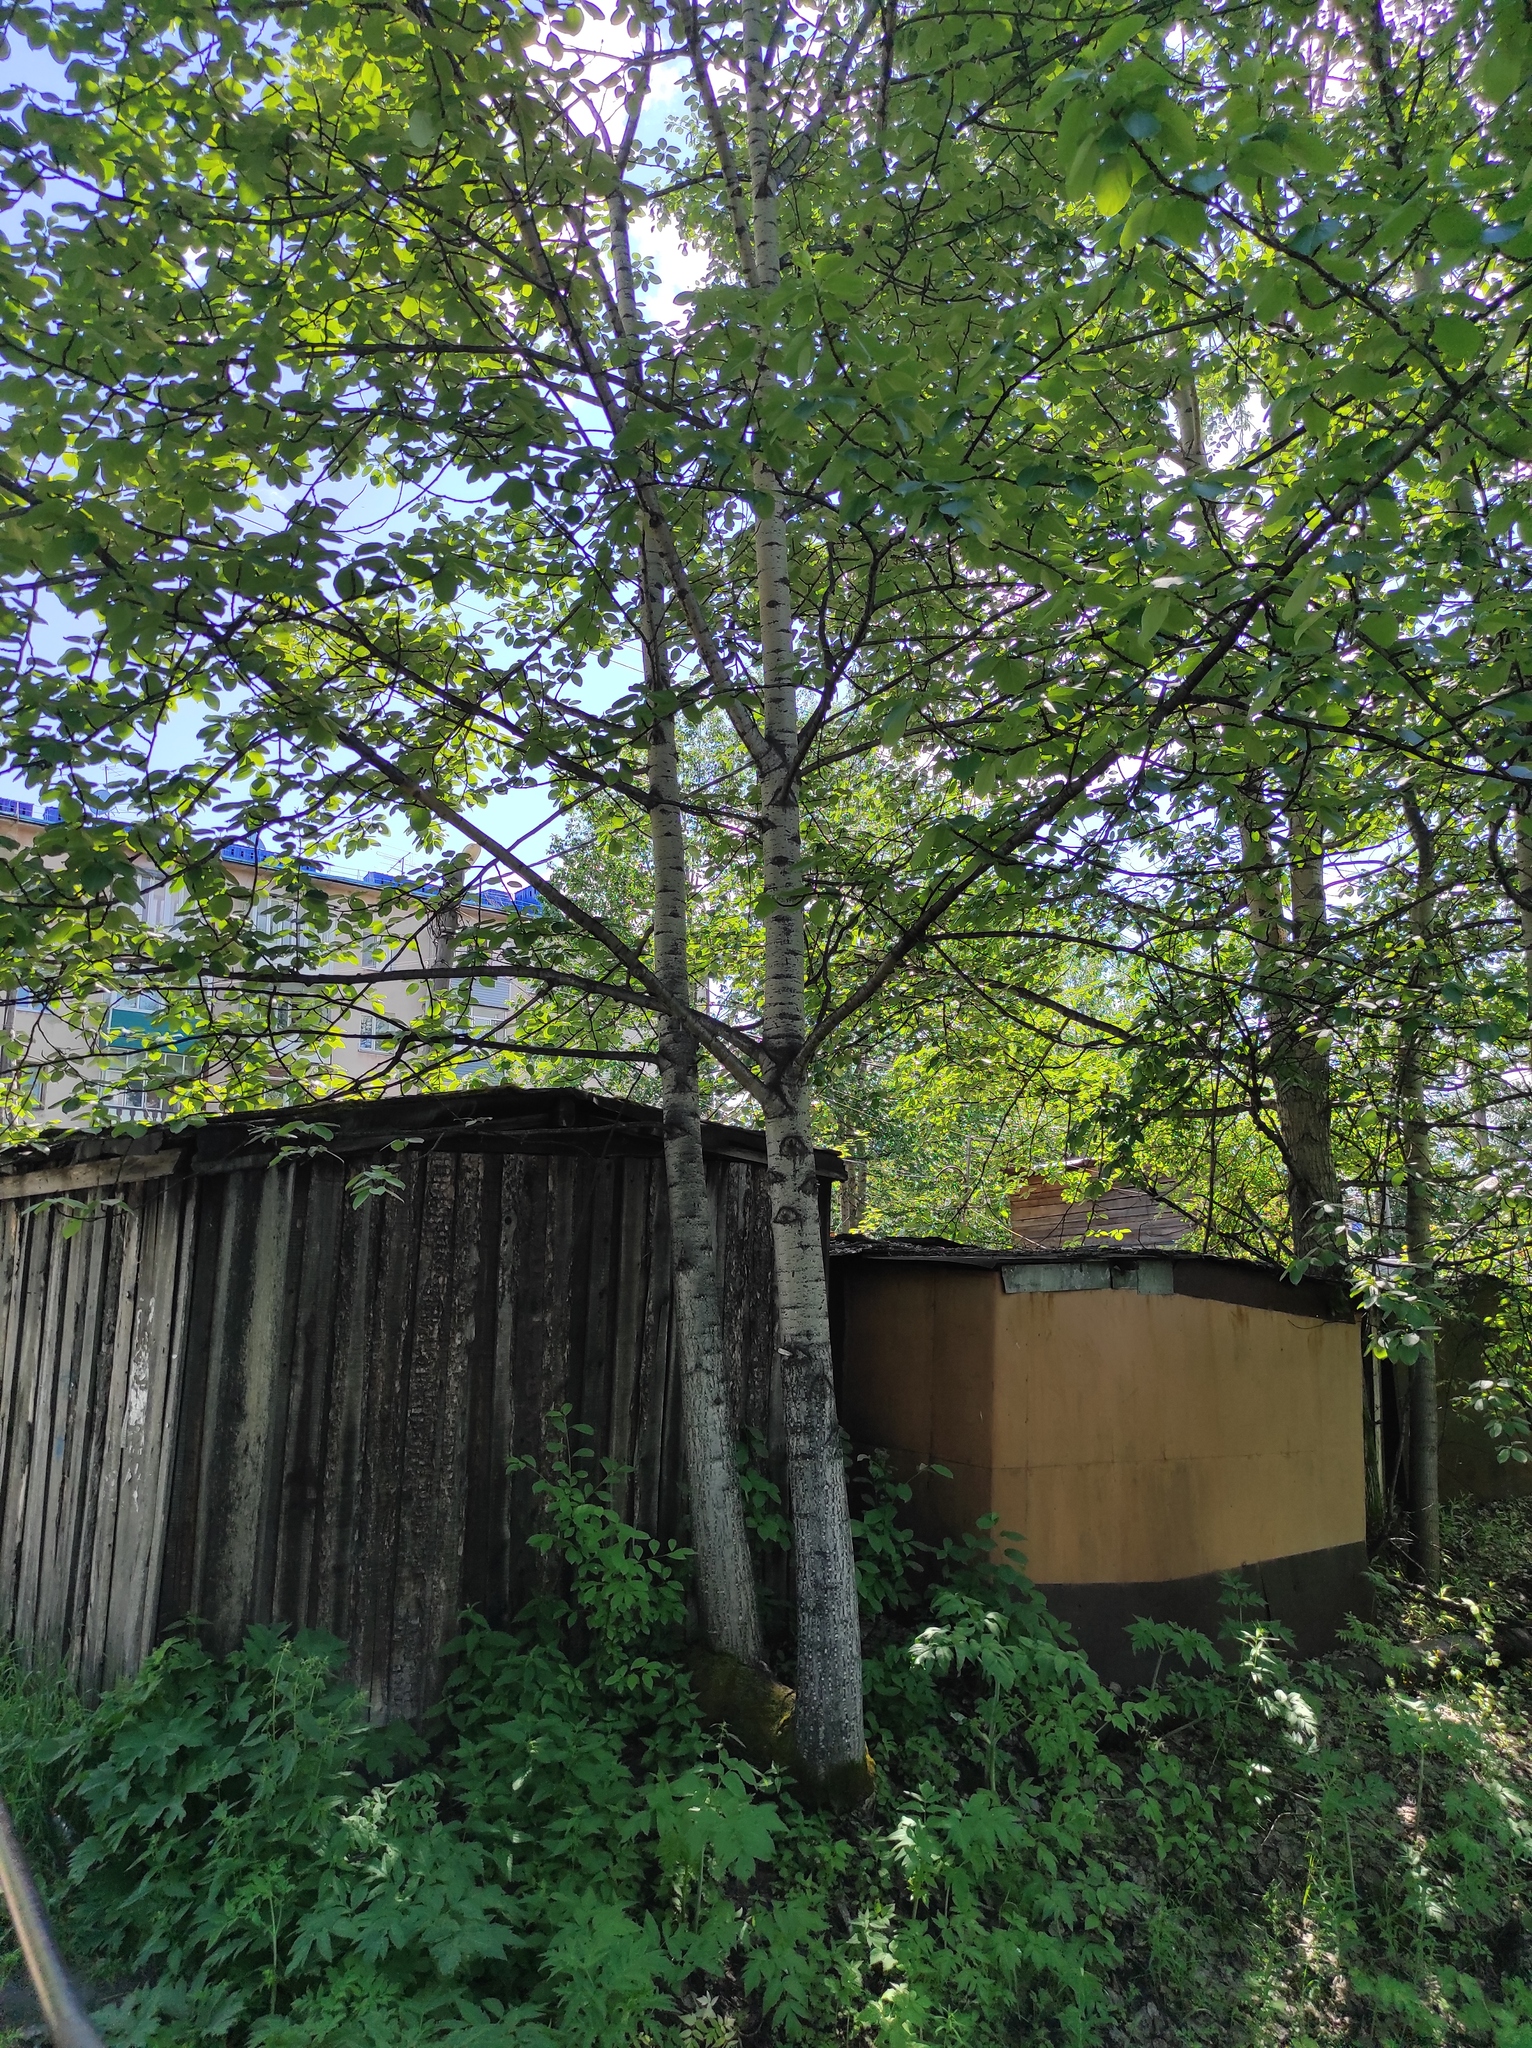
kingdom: Plantae
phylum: Tracheophyta
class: Magnoliopsida
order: Apiales
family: Apiaceae
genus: Angelica
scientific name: Angelica decurrens
